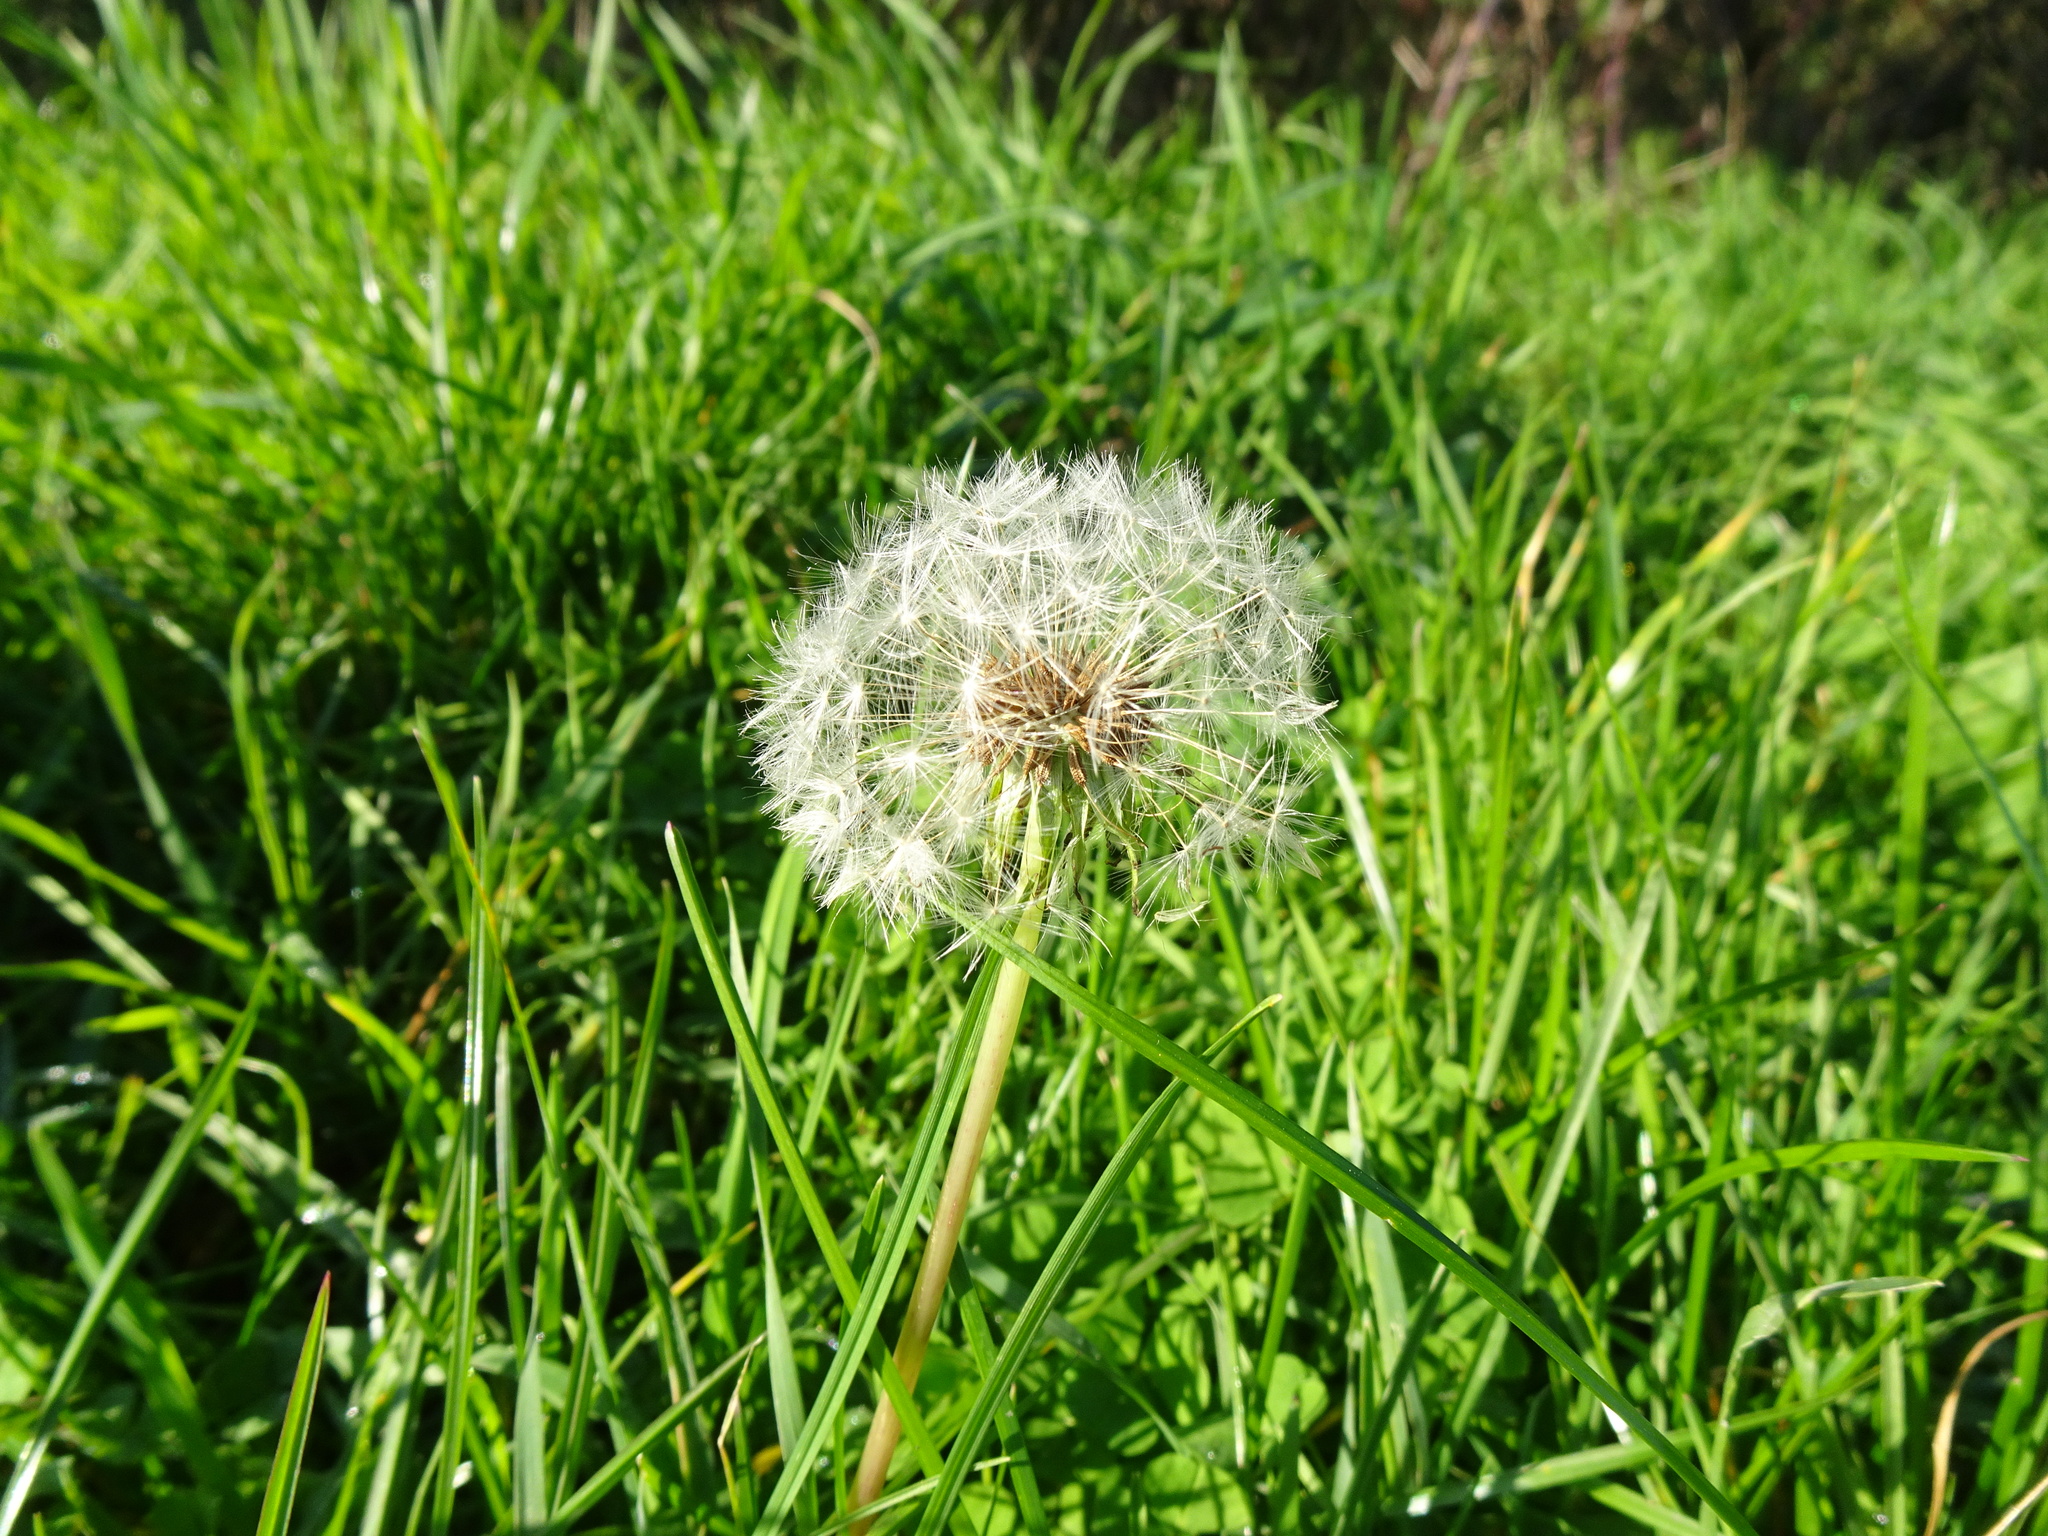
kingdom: Plantae
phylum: Tracheophyta
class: Magnoliopsida
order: Asterales
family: Asteraceae
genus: Taraxacum
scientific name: Taraxacum officinale
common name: Common dandelion
